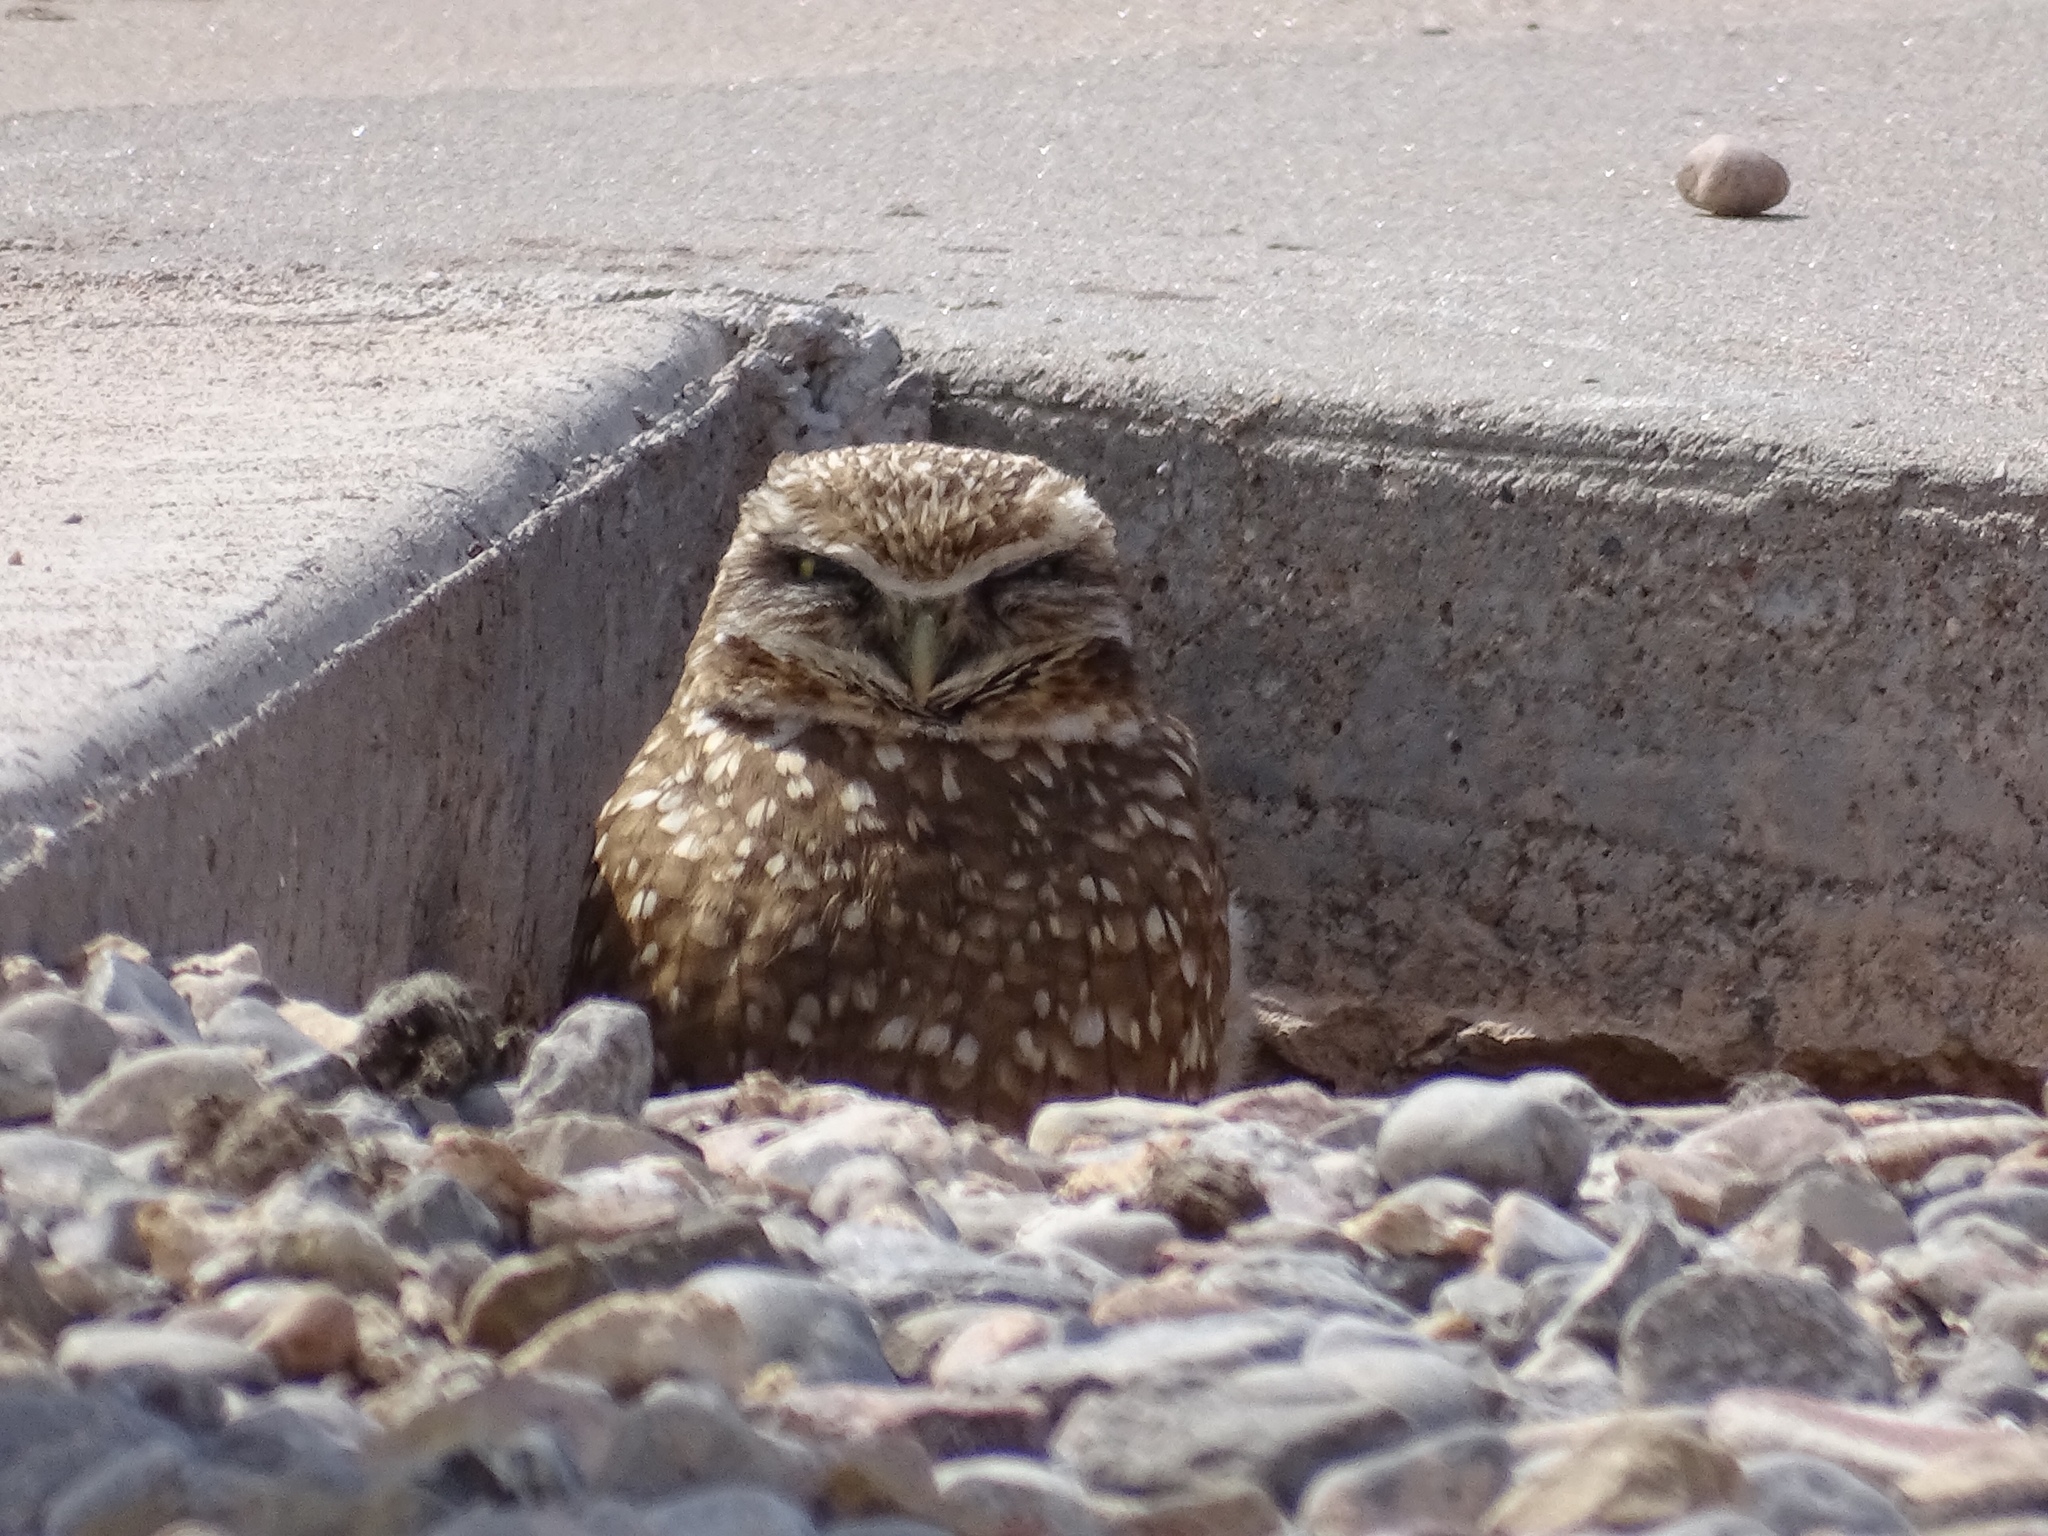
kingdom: Animalia
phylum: Chordata
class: Aves
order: Strigiformes
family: Strigidae
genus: Athene
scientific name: Athene cunicularia
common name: Burrowing owl
